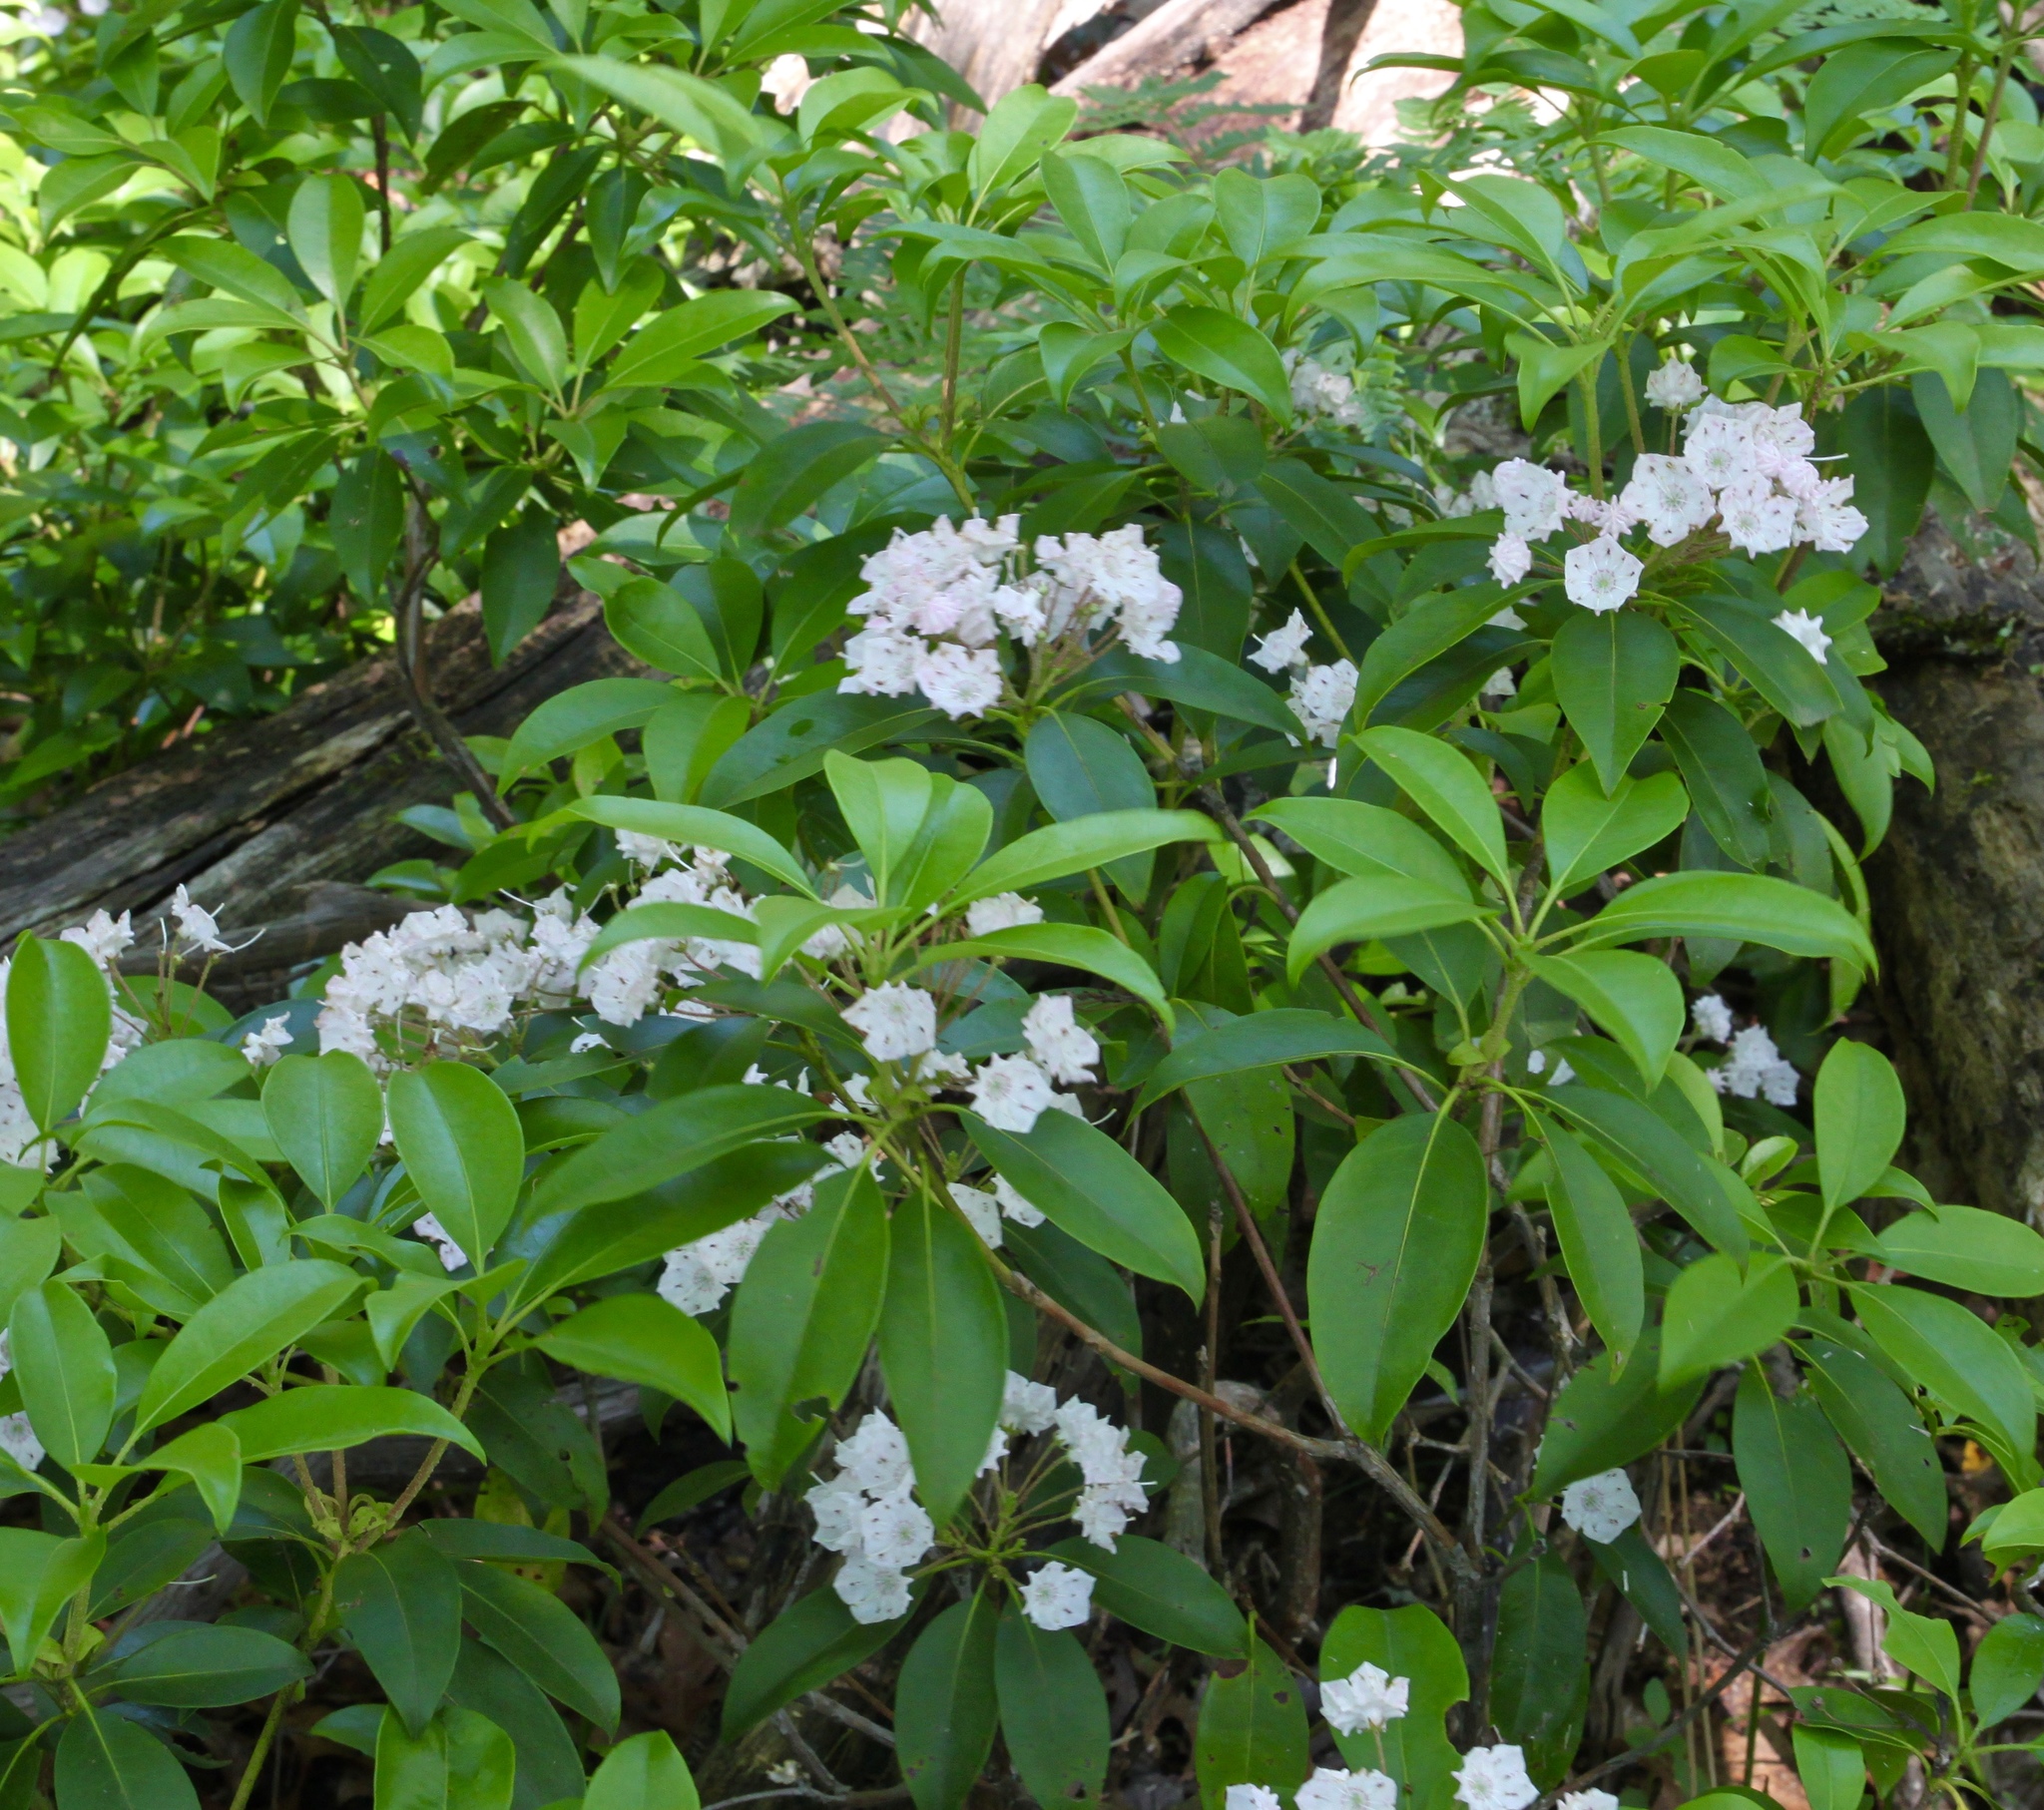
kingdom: Plantae
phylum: Tracheophyta
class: Magnoliopsida
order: Ericales
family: Ericaceae
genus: Kalmia
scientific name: Kalmia latifolia
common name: Mountain-laurel
